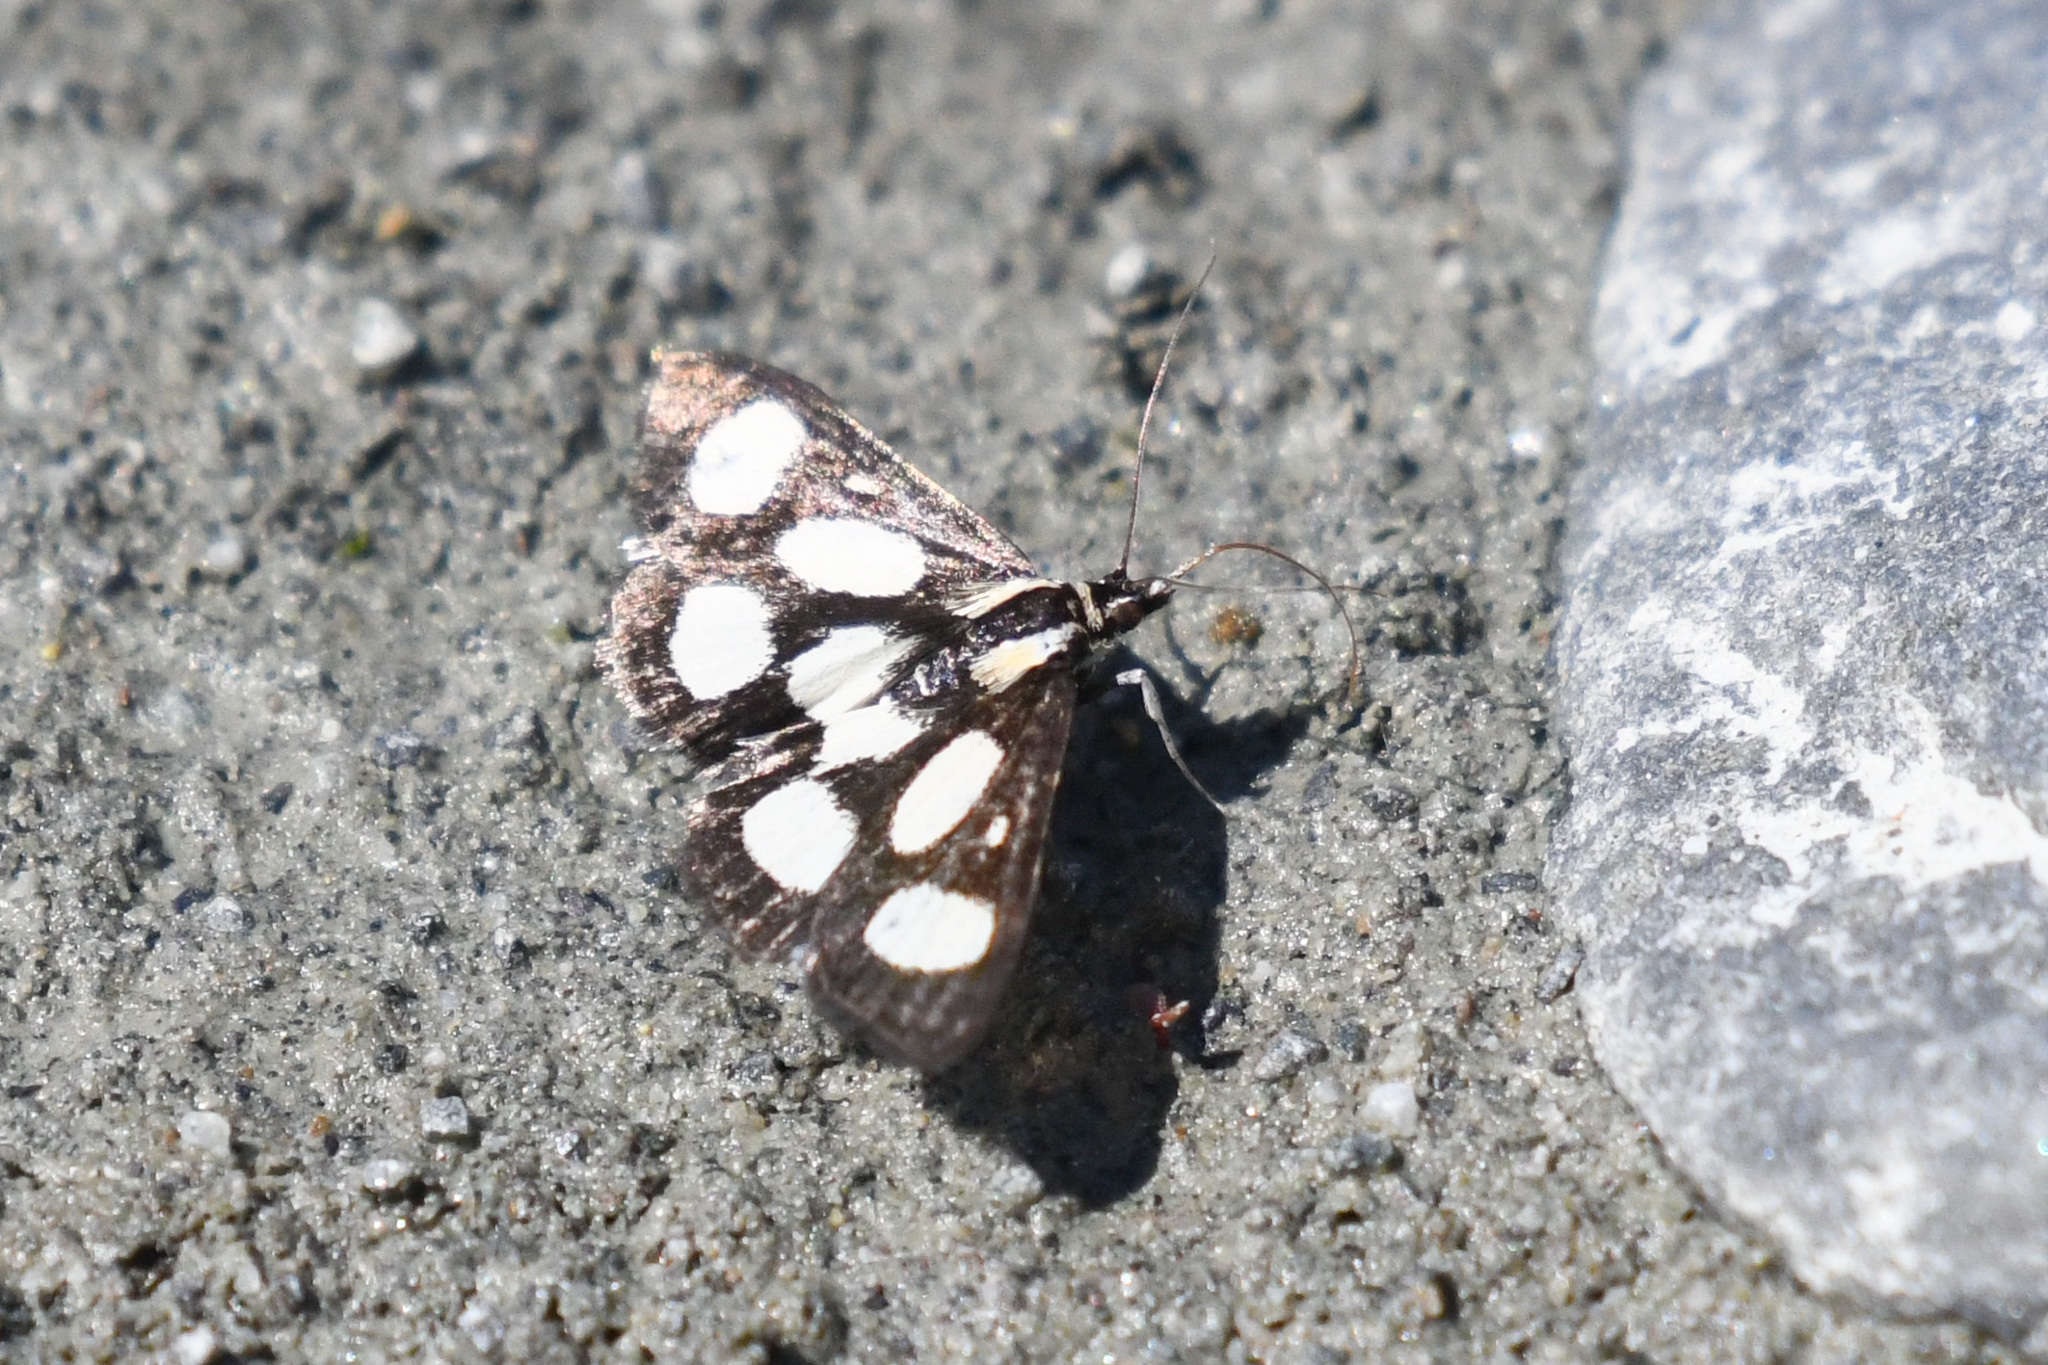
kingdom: Animalia
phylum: Arthropoda
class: Insecta
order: Lepidoptera
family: Crambidae
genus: Anania
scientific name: Anania funebris
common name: White-spotted sable moth
